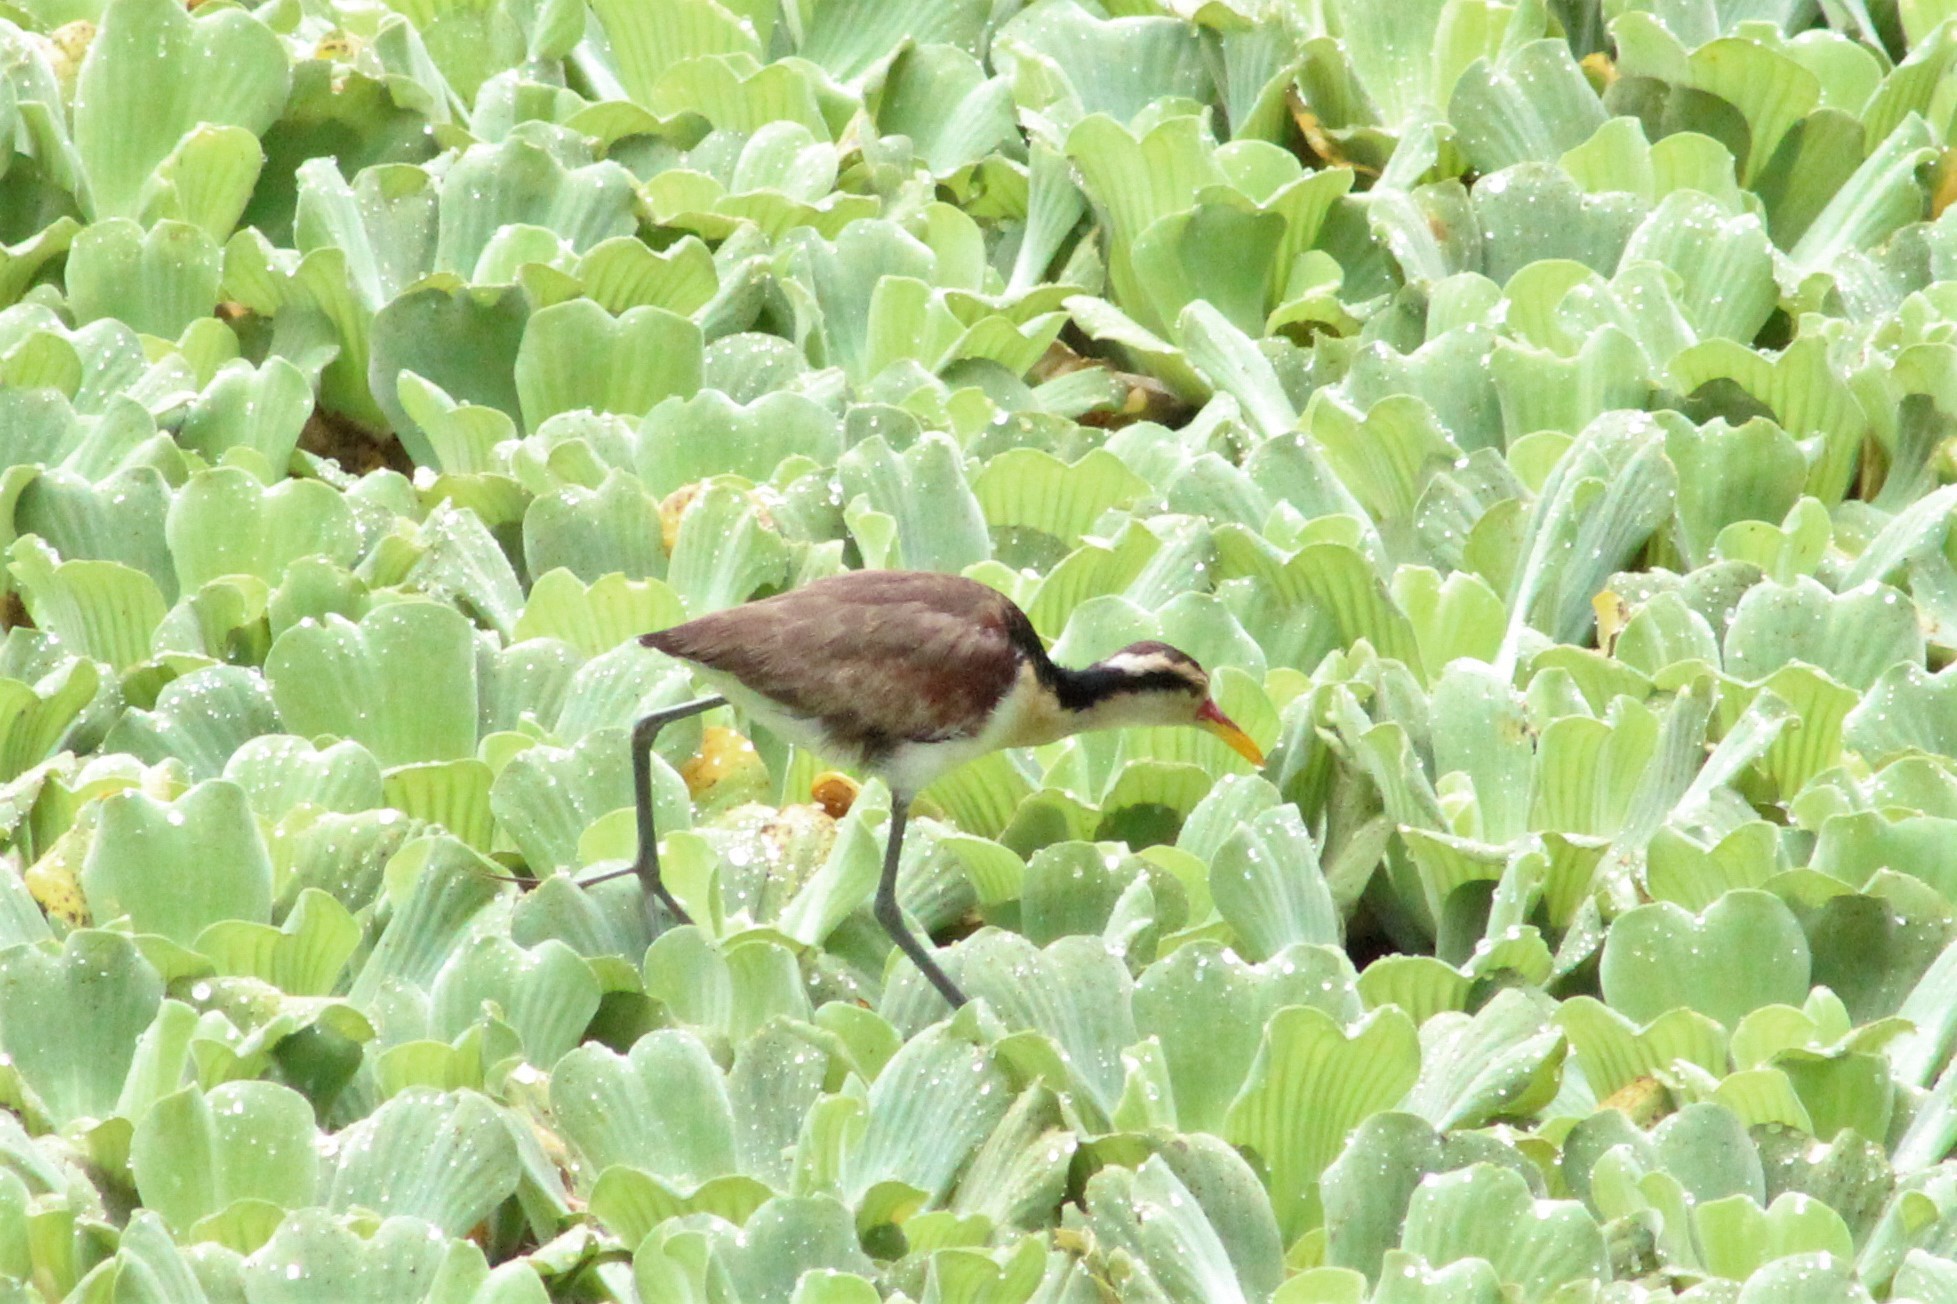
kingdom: Animalia
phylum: Chordata
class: Aves
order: Charadriiformes
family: Jacanidae
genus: Jacana
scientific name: Jacana jacana
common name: Wattled jacana
